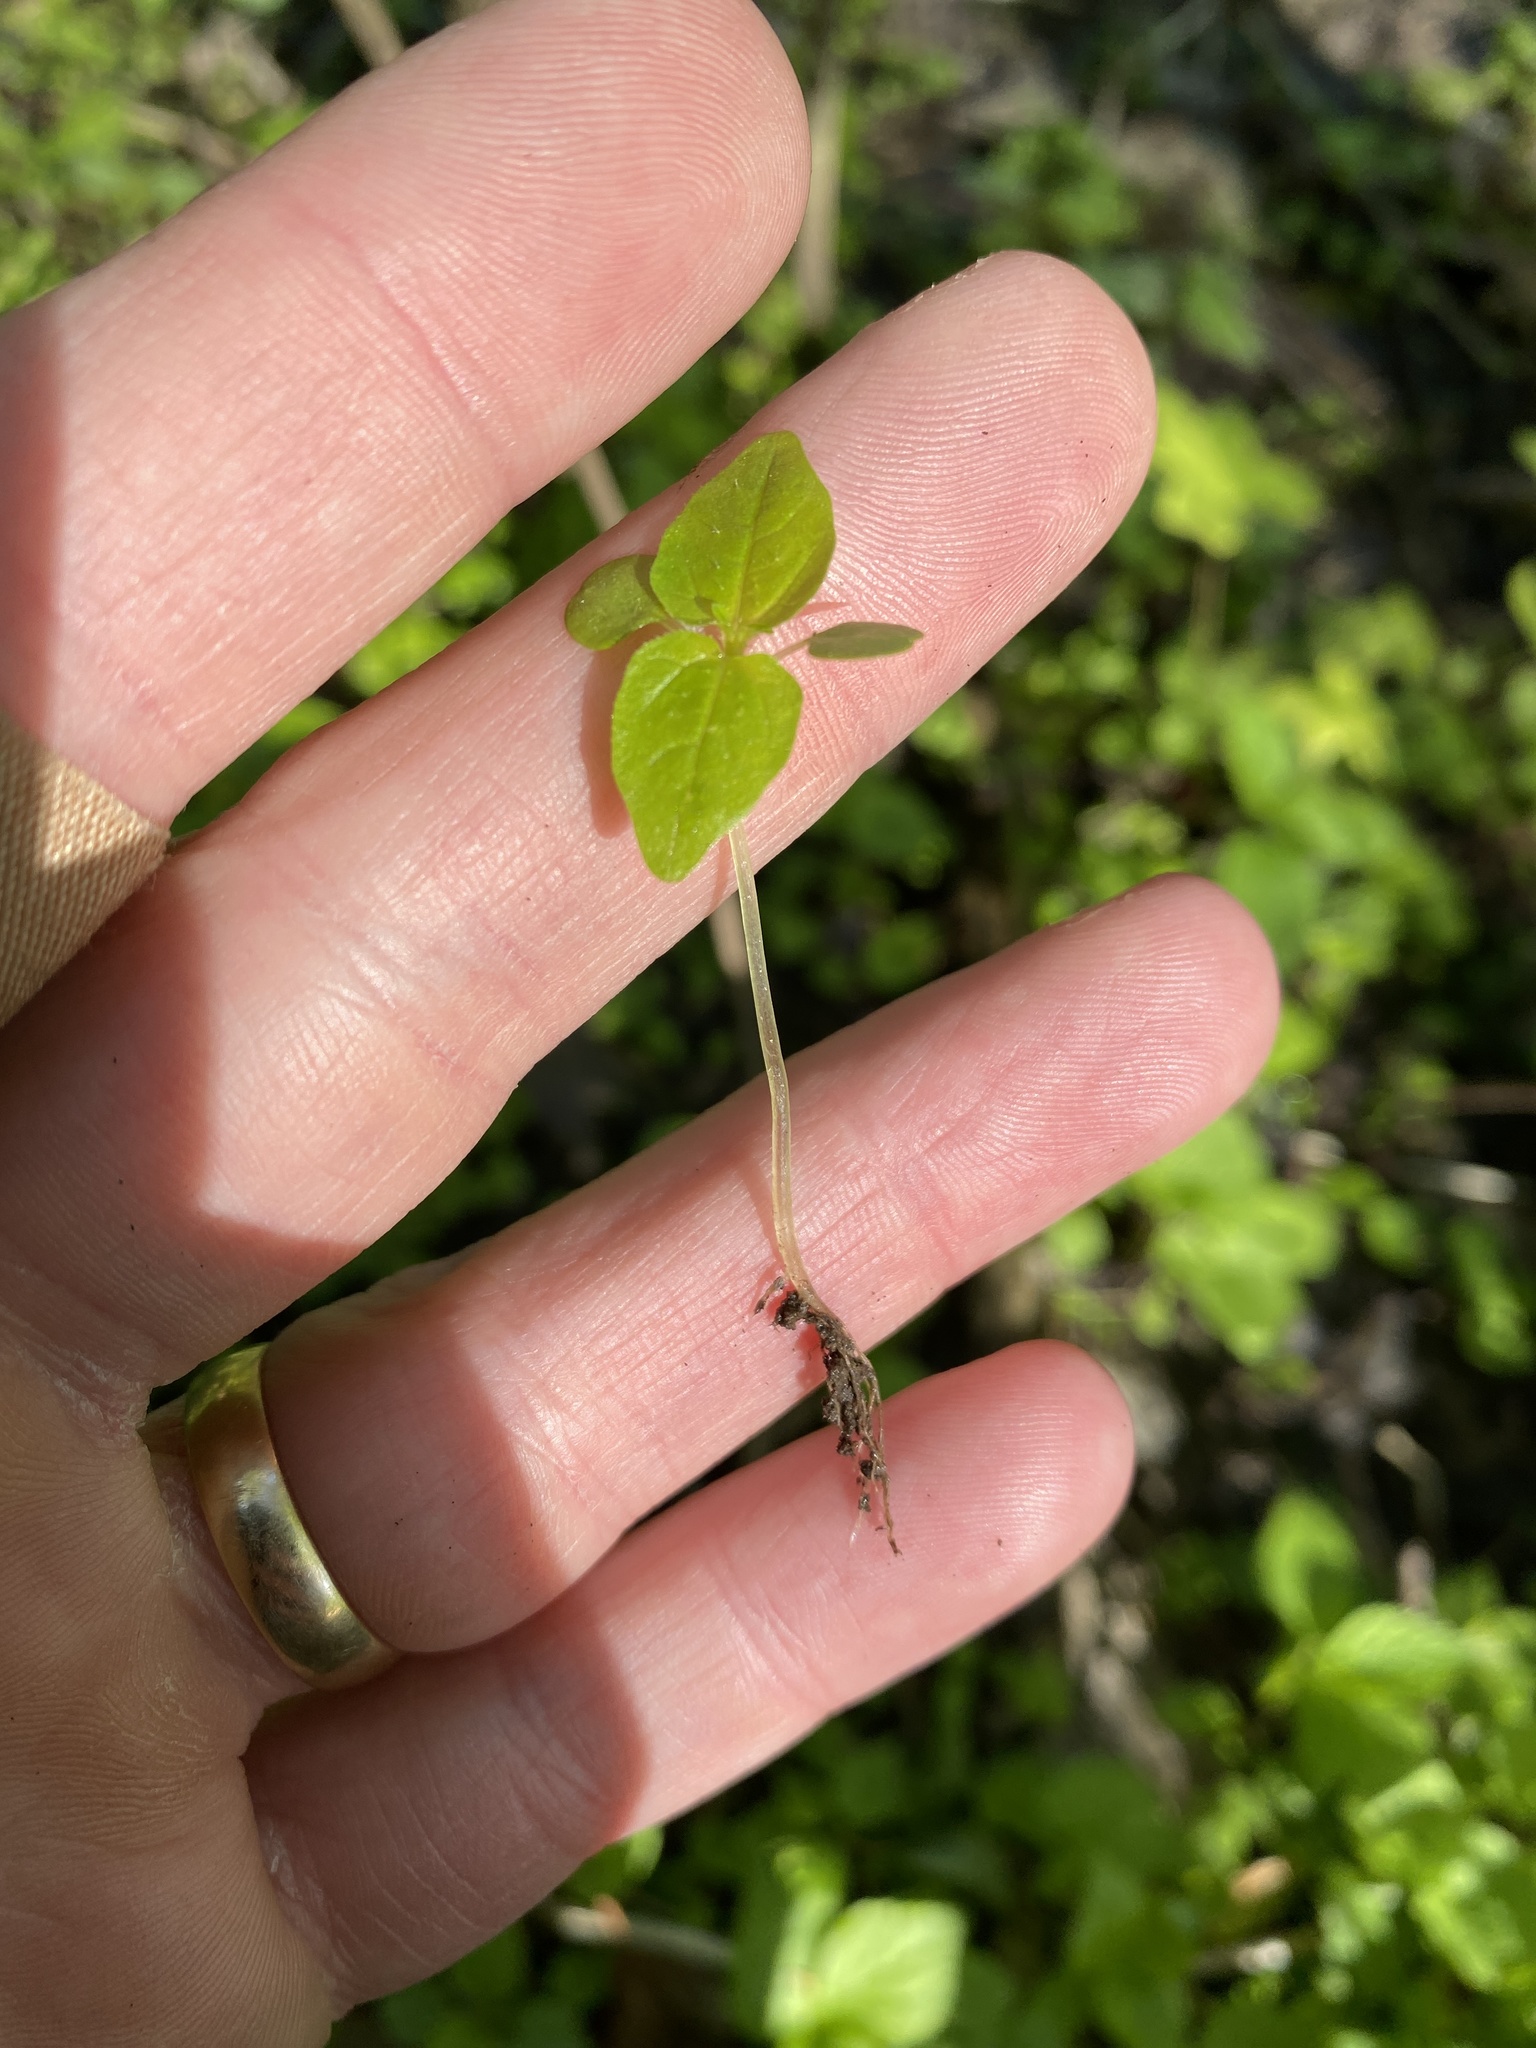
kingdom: Plantae
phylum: Tracheophyta
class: Magnoliopsida
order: Rosales
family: Urticaceae
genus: Pilea
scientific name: Pilea pumila
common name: Clearweed
